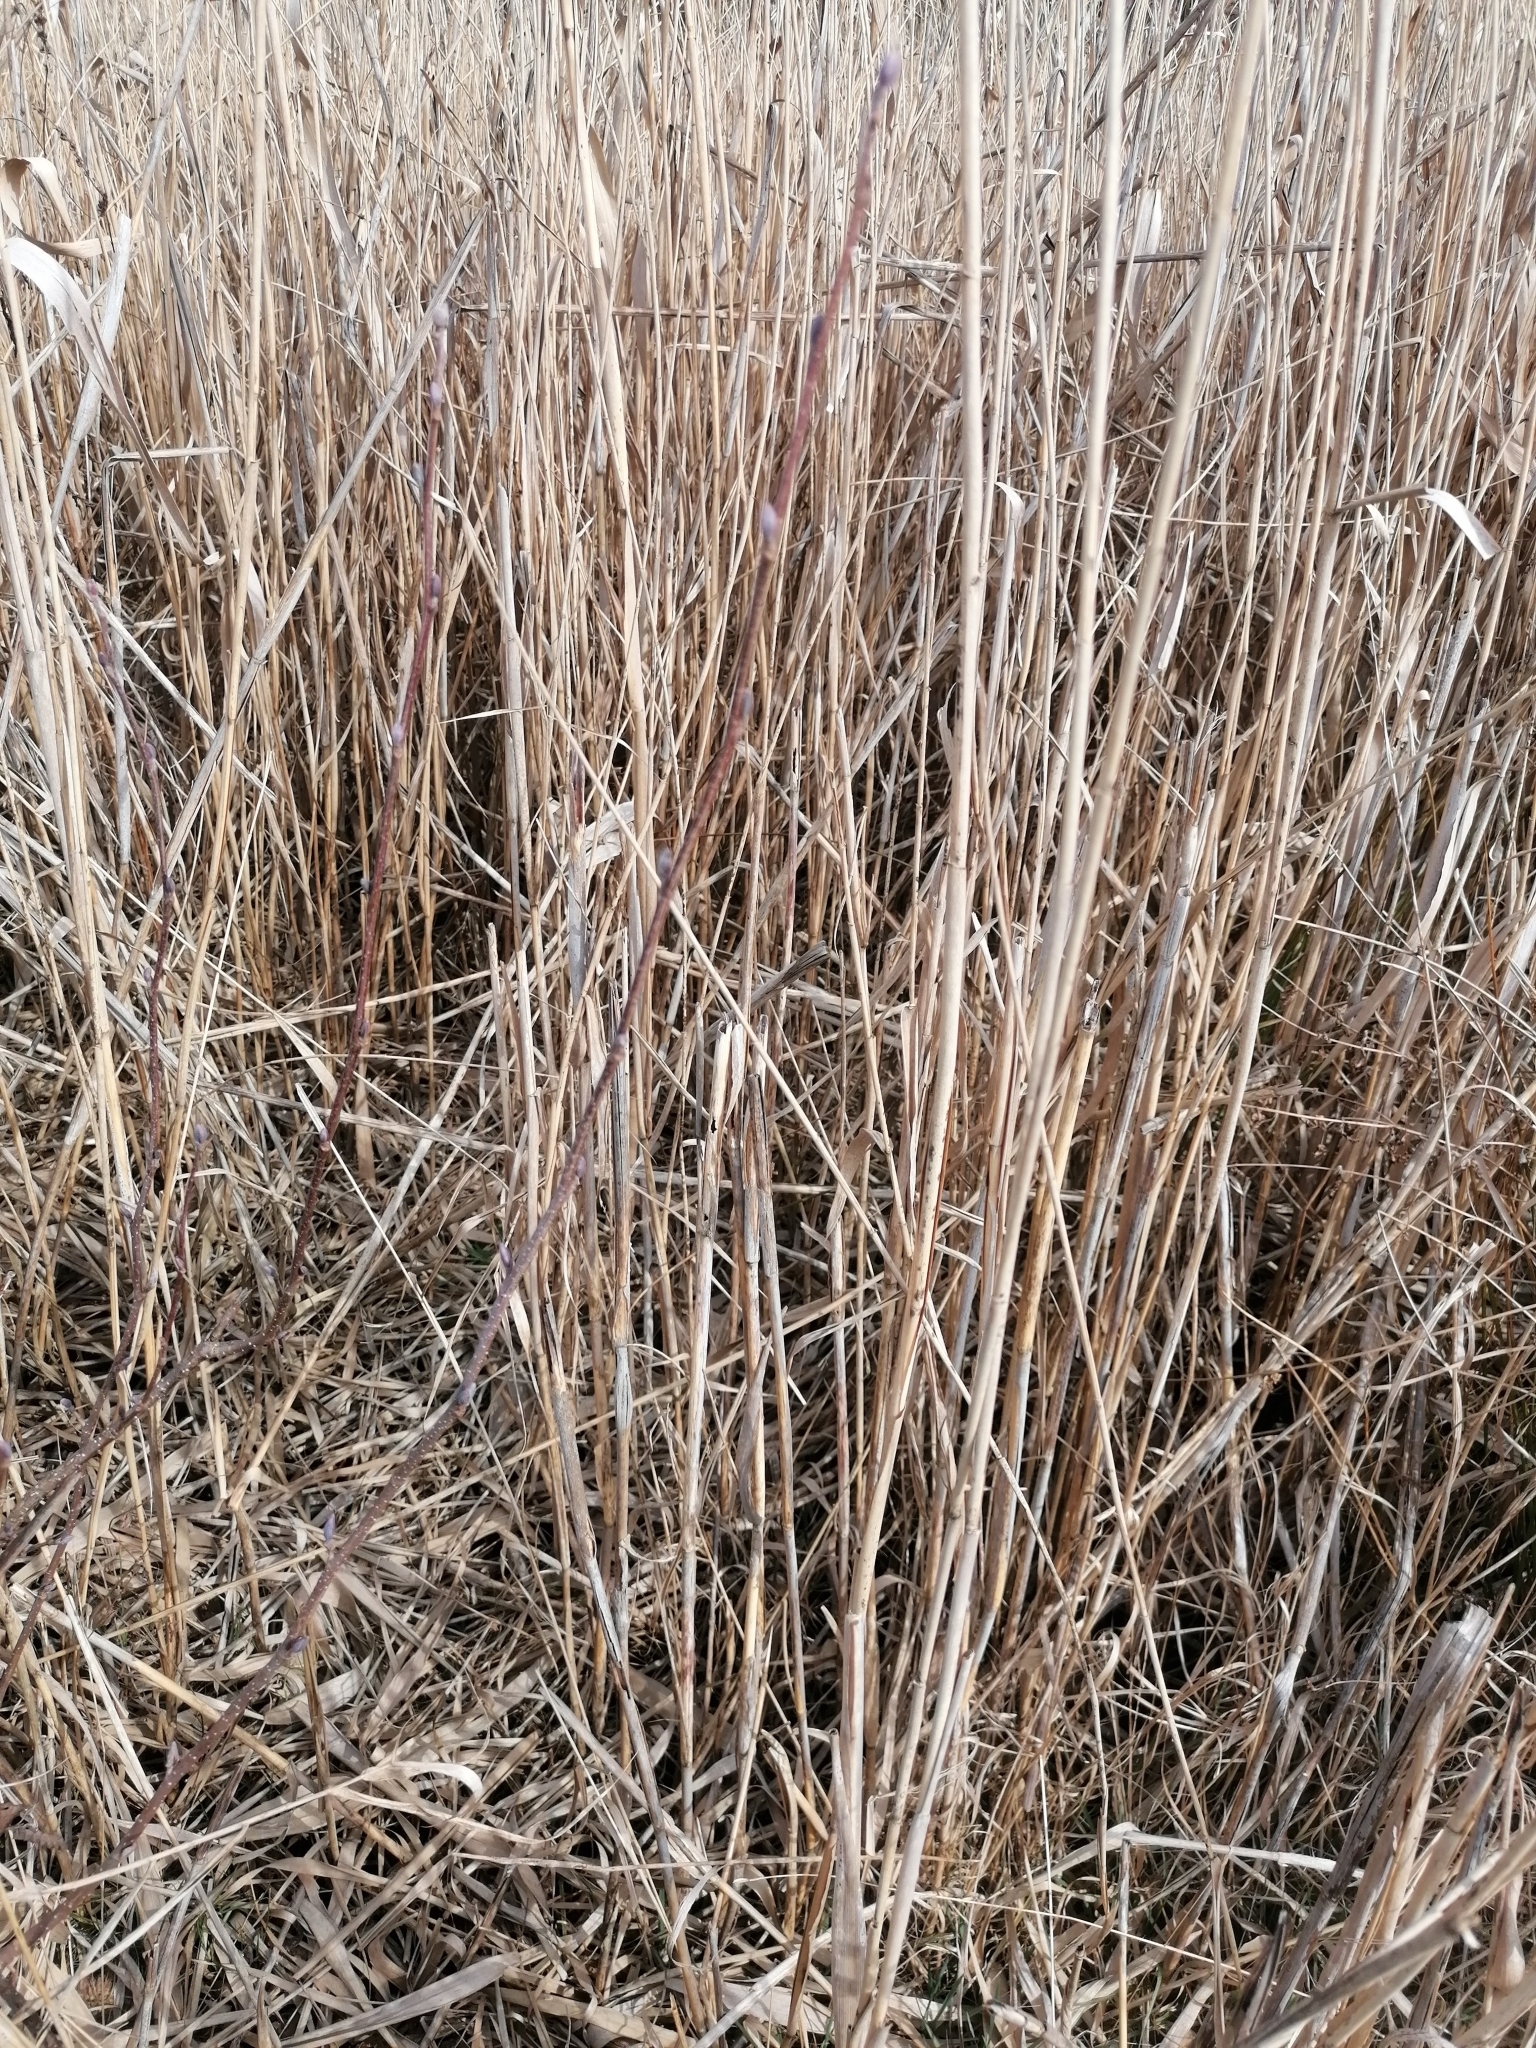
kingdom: Plantae
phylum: Tracheophyta
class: Liliopsida
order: Poales
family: Poaceae
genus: Phragmites
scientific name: Phragmites australis
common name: Common reed
